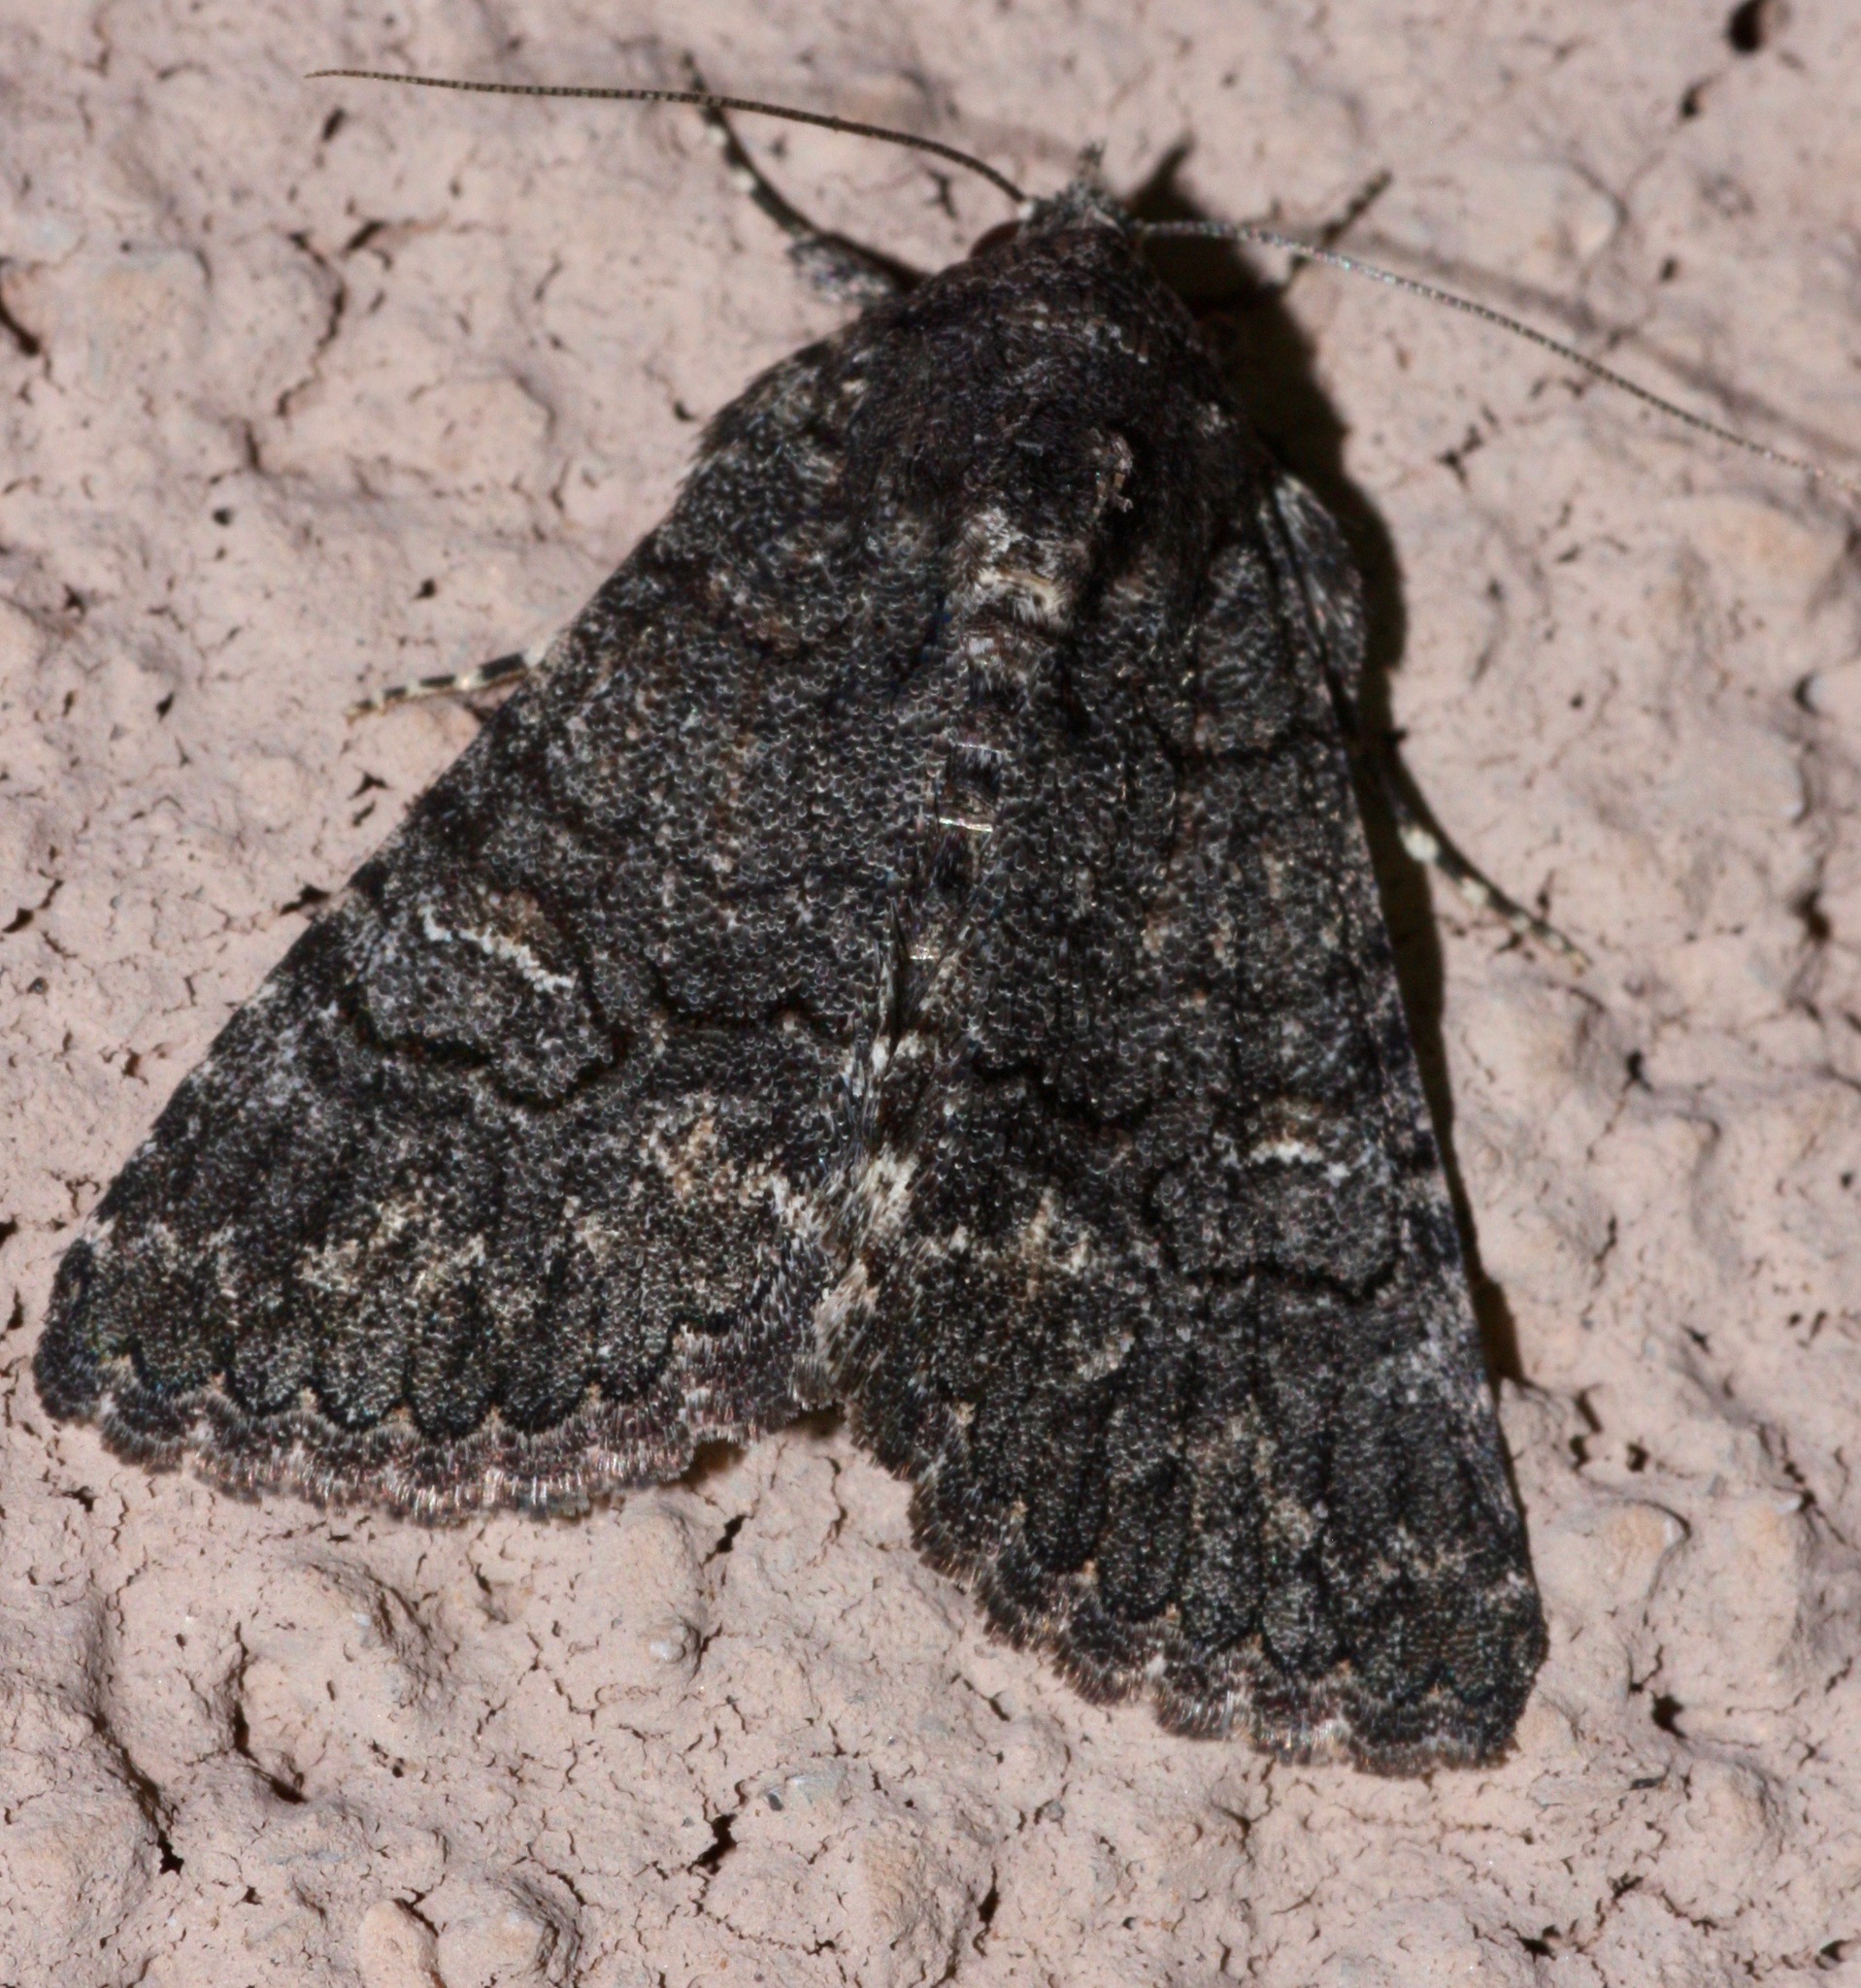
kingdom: Animalia
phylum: Arthropoda
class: Insecta
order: Lepidoptera
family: Erebidae
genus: Elousa
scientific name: Elousa mima
